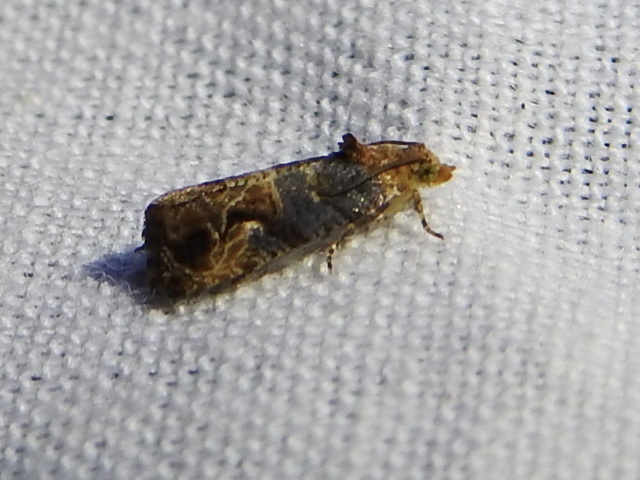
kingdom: Animalia
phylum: Arthropoda
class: Insecta
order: Lepidoptera
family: Tortricidae
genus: Paralobesia
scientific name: Paralobesia viteana
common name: Grape berry moth
